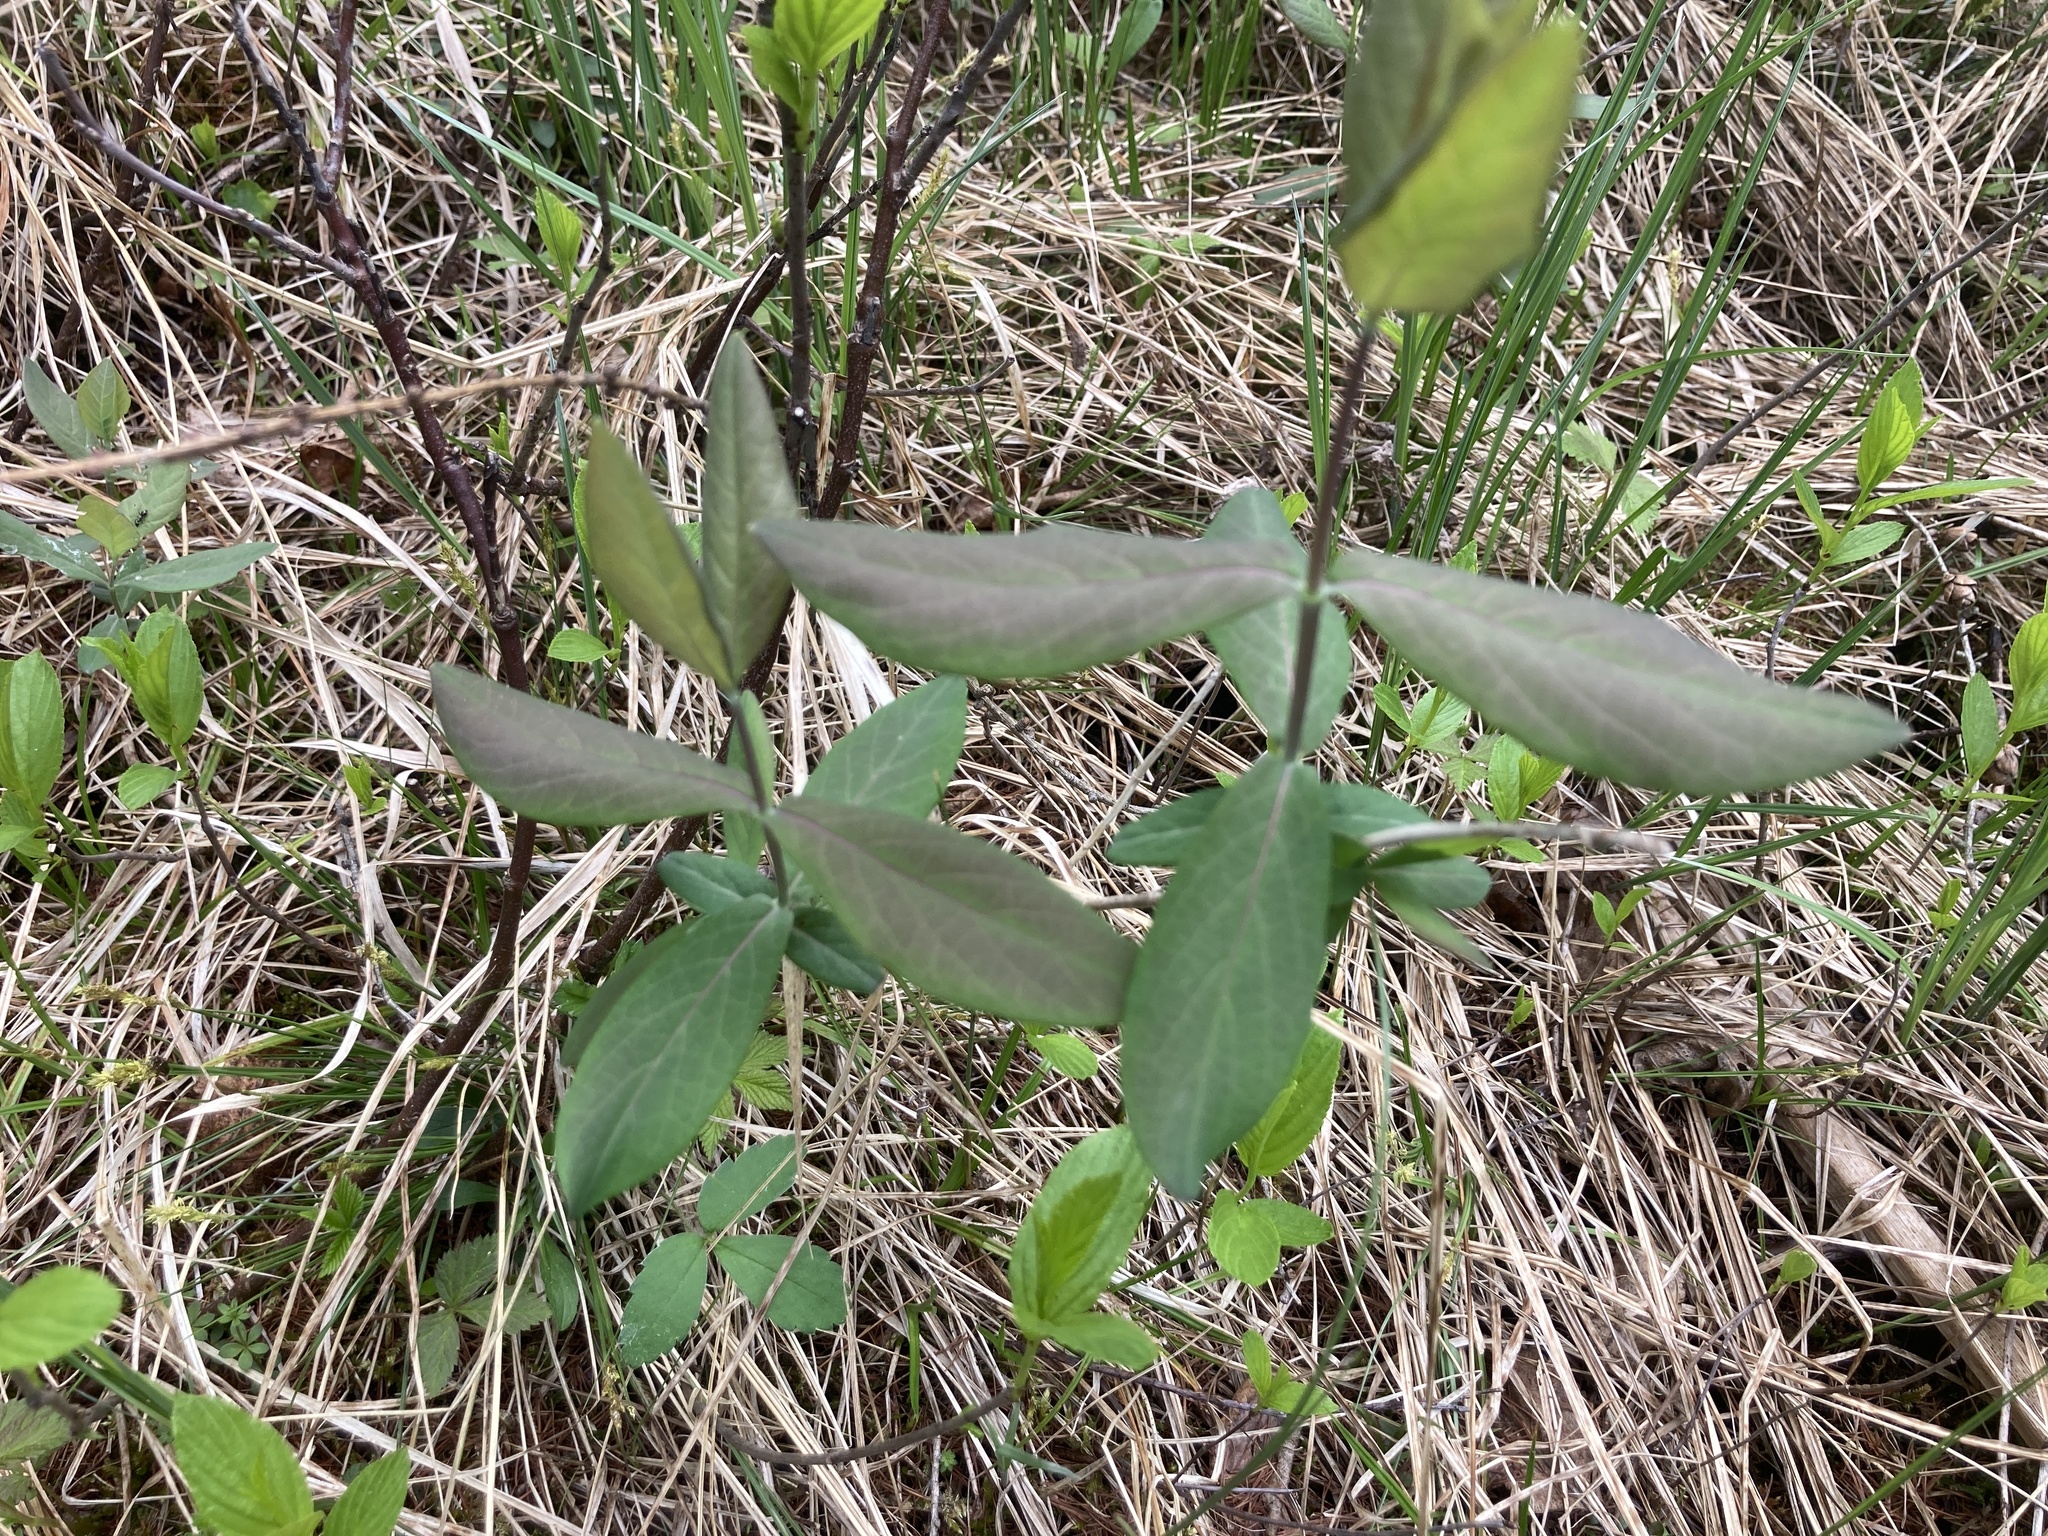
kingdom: Plantae
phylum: Tracheophyta
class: Magnoliopsida
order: Dipsacales
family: Caprifoliaceae
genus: Lonicera
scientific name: Lonicera dioica
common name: Limber honeysuckle
